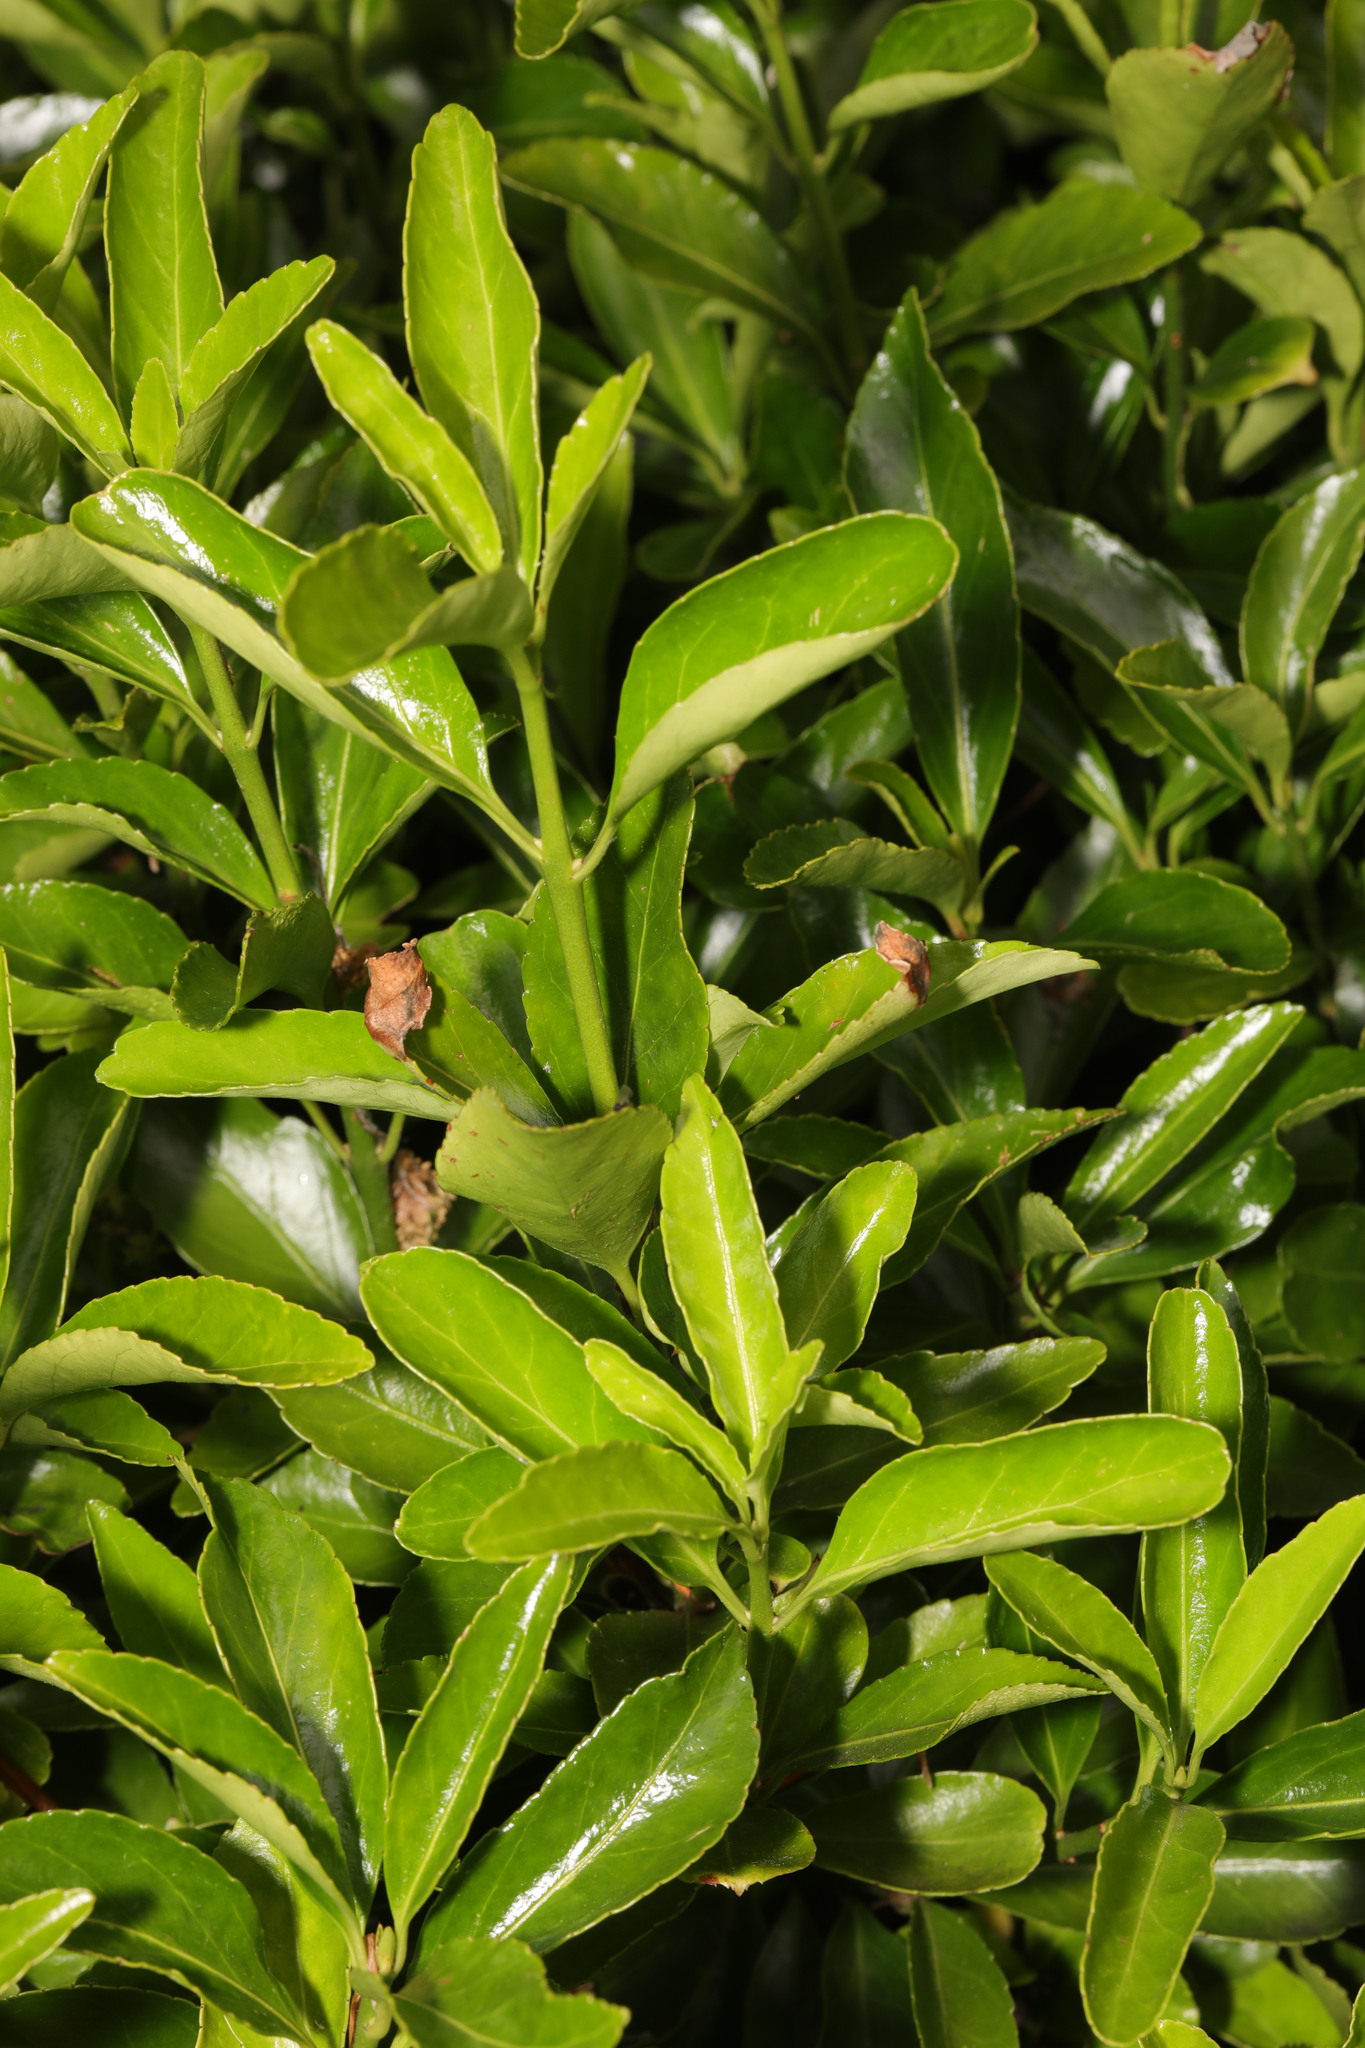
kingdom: Plantae
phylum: Tracheophyta
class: Magnoliopsida
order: Celastrales
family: Celastraceae
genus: Euonymus
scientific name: Euonymus japonicus
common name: Japanese spindletree
